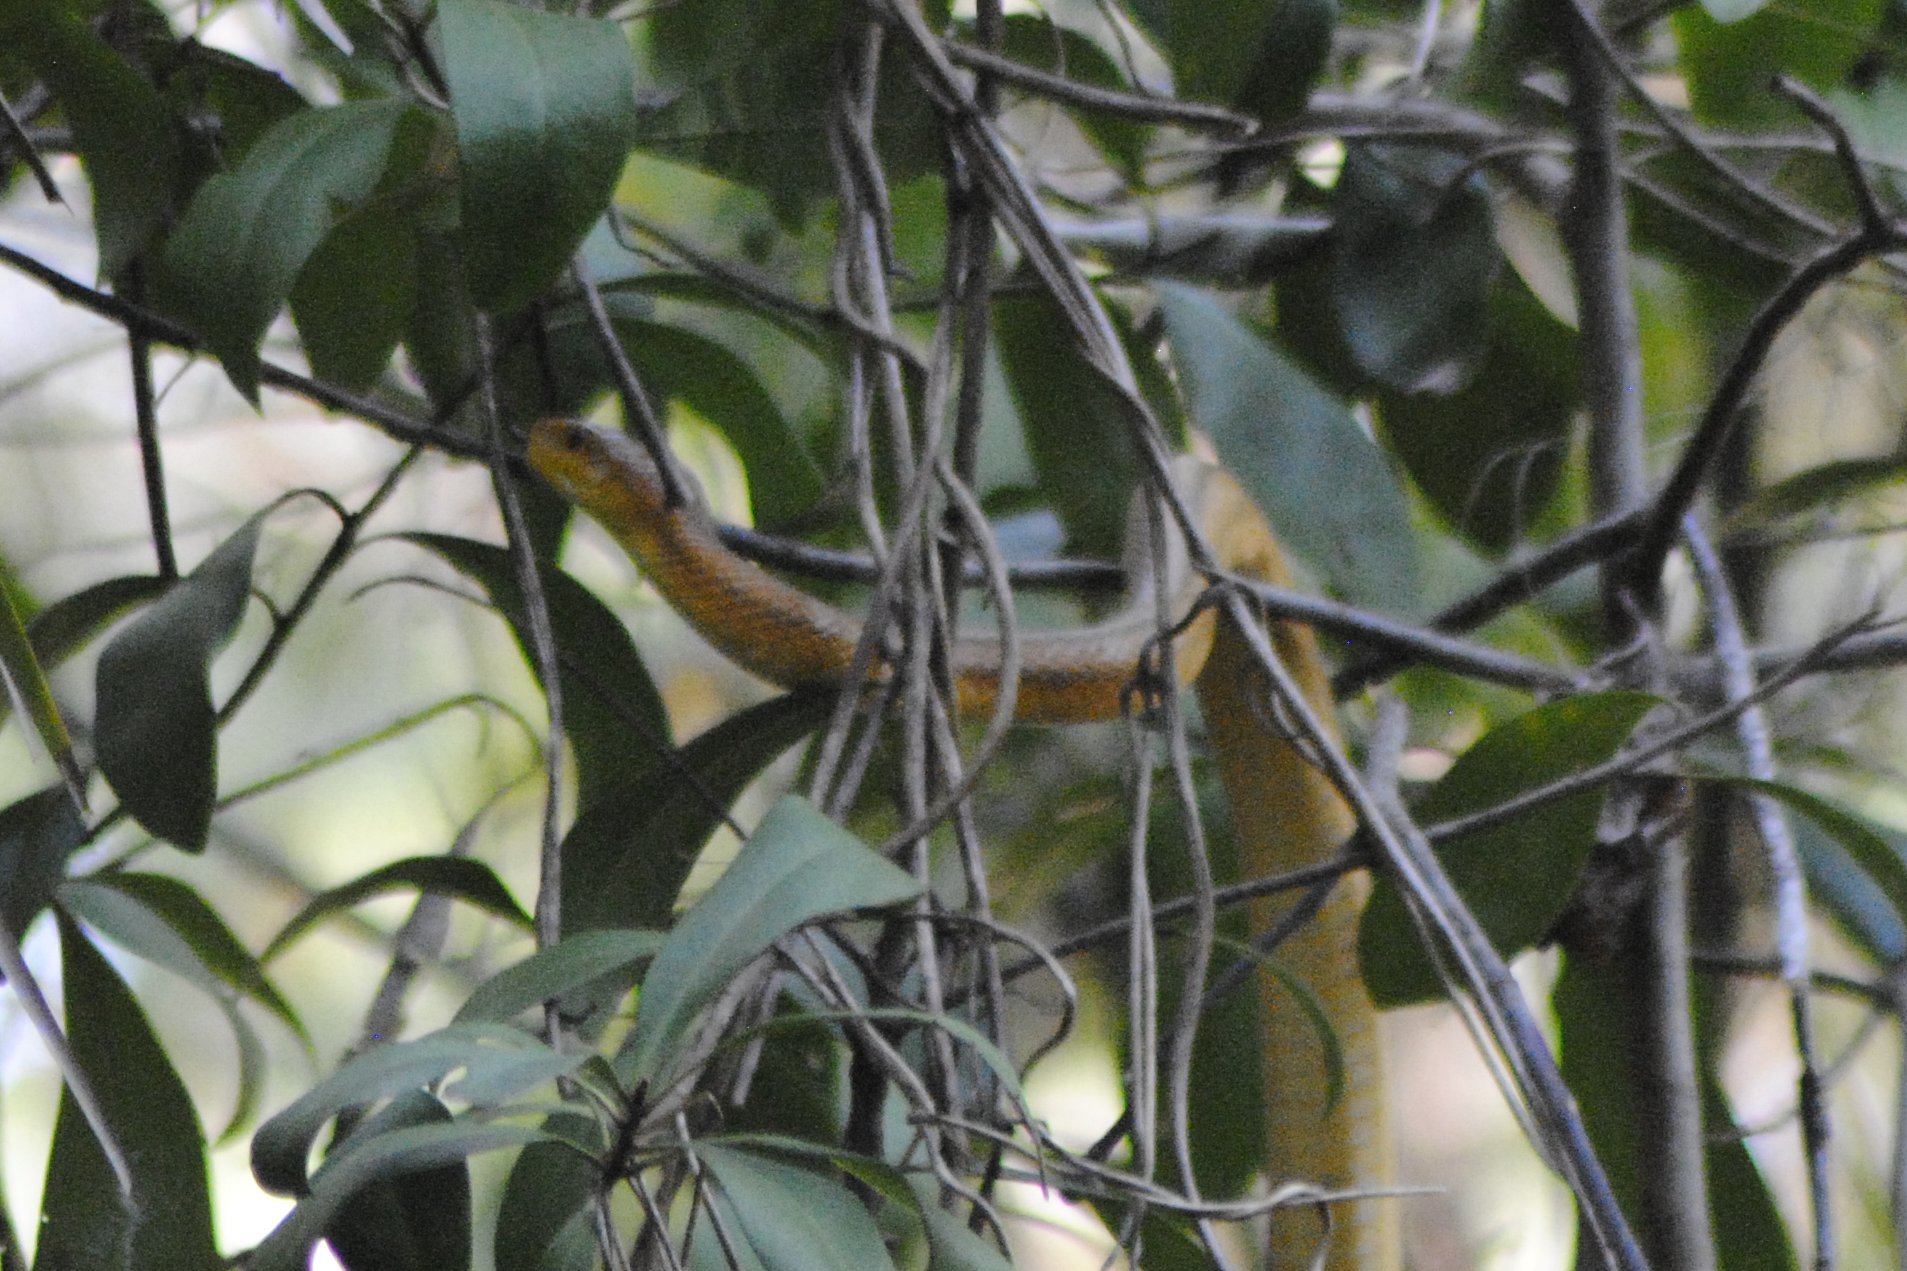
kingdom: Animalia
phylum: Chordata
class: Squamata
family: Colubridae
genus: Pantherophis
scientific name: Pantherophis alleghaniensis
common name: Eastern rat snake
